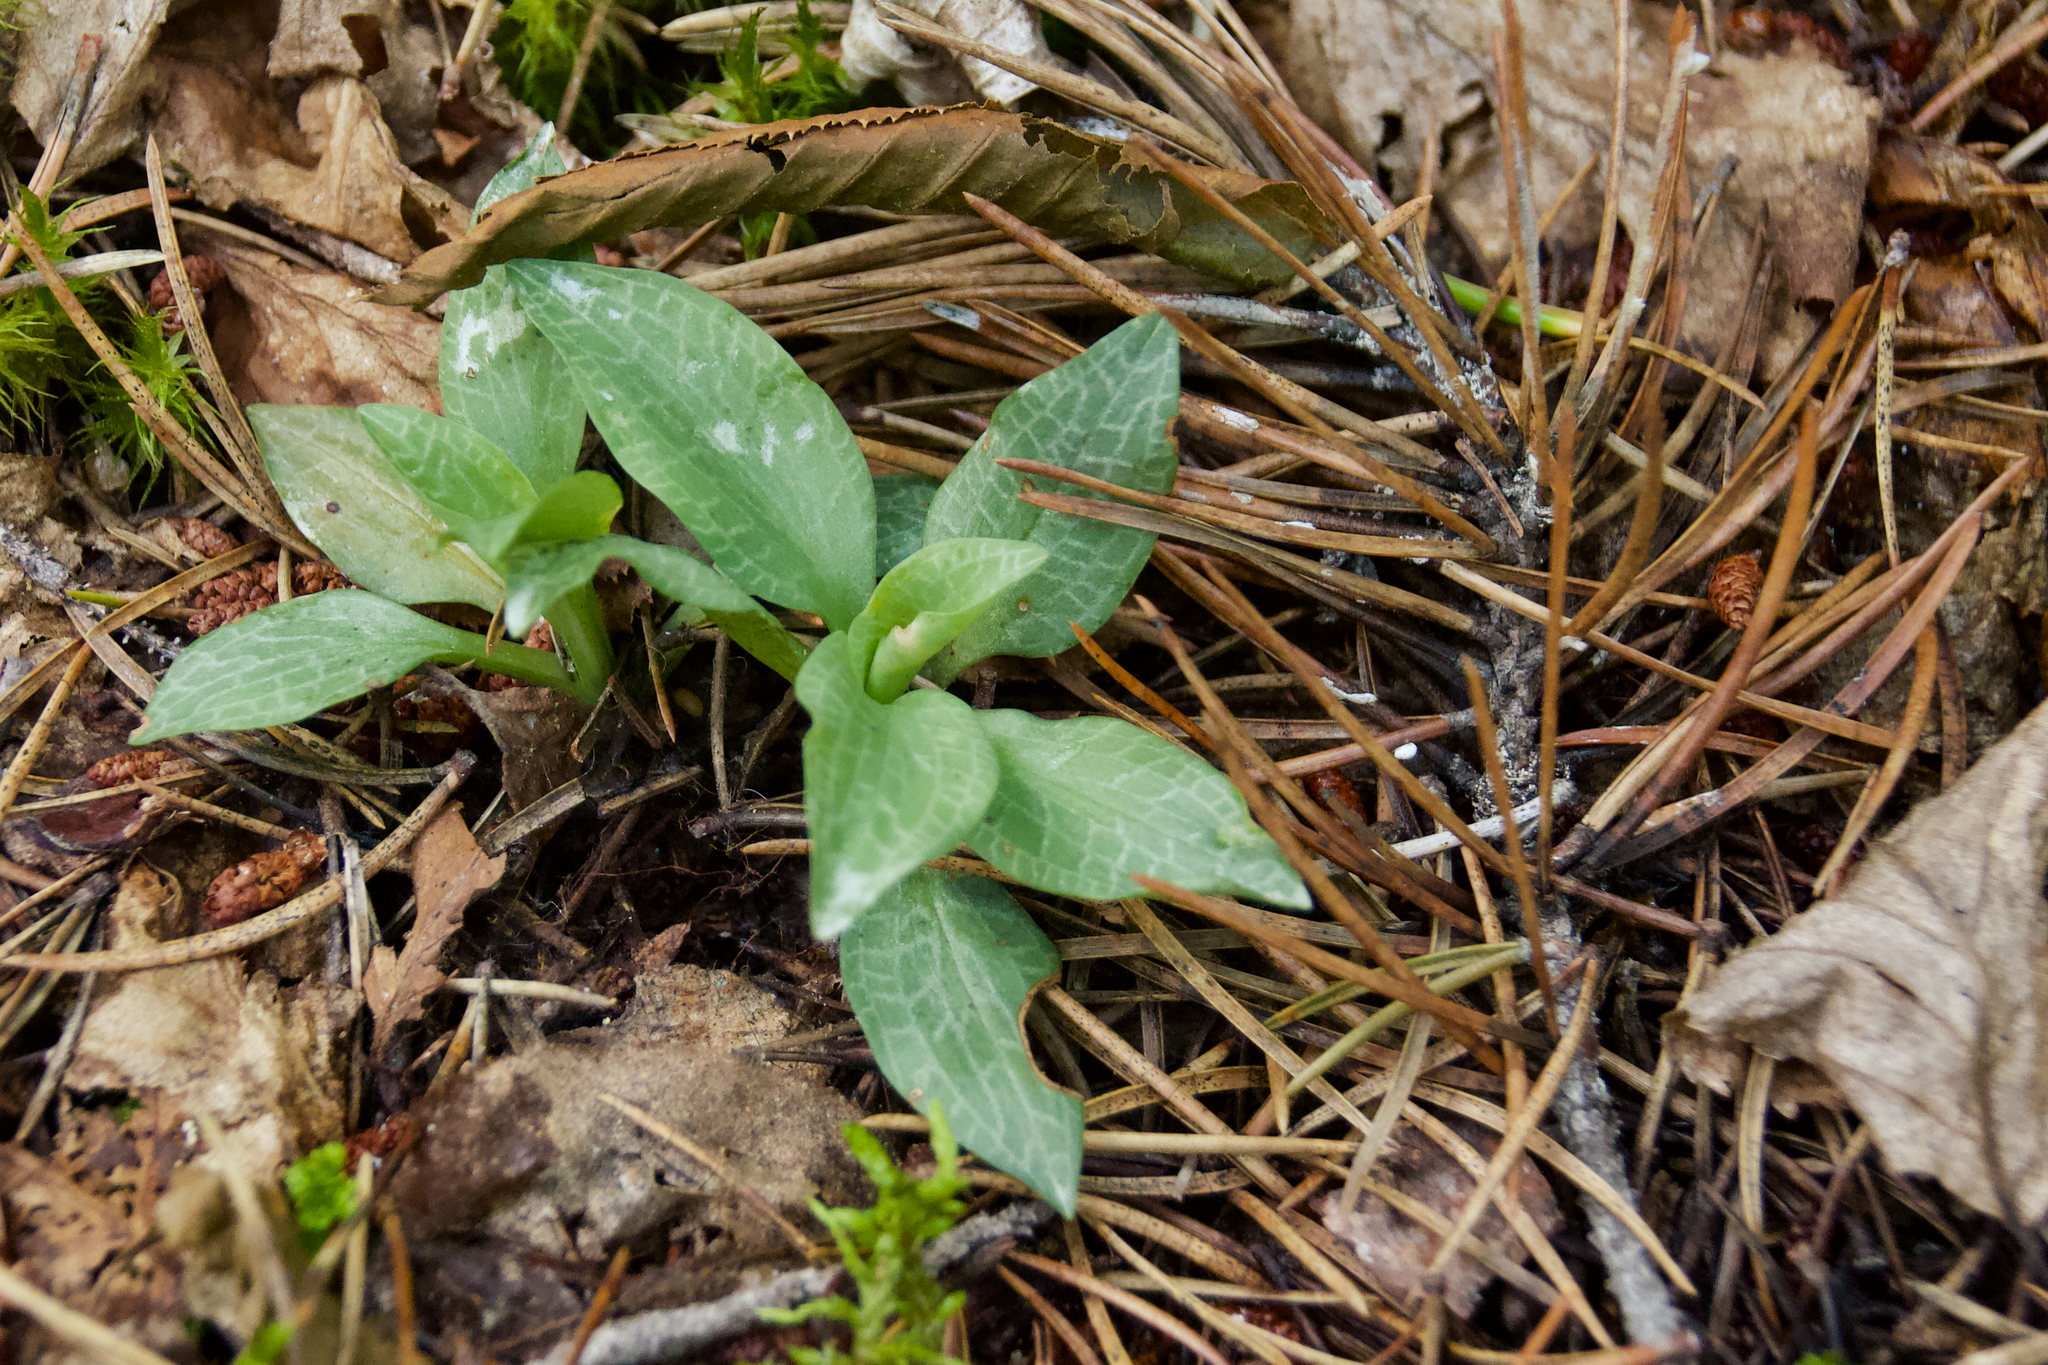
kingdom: Plantae
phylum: Tracheophyta
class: Liliopsida
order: Asparagales
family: Orchidaceae
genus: Goodyera
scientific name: Goodyera tesselata
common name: Checkered rattlesnake-plantain
